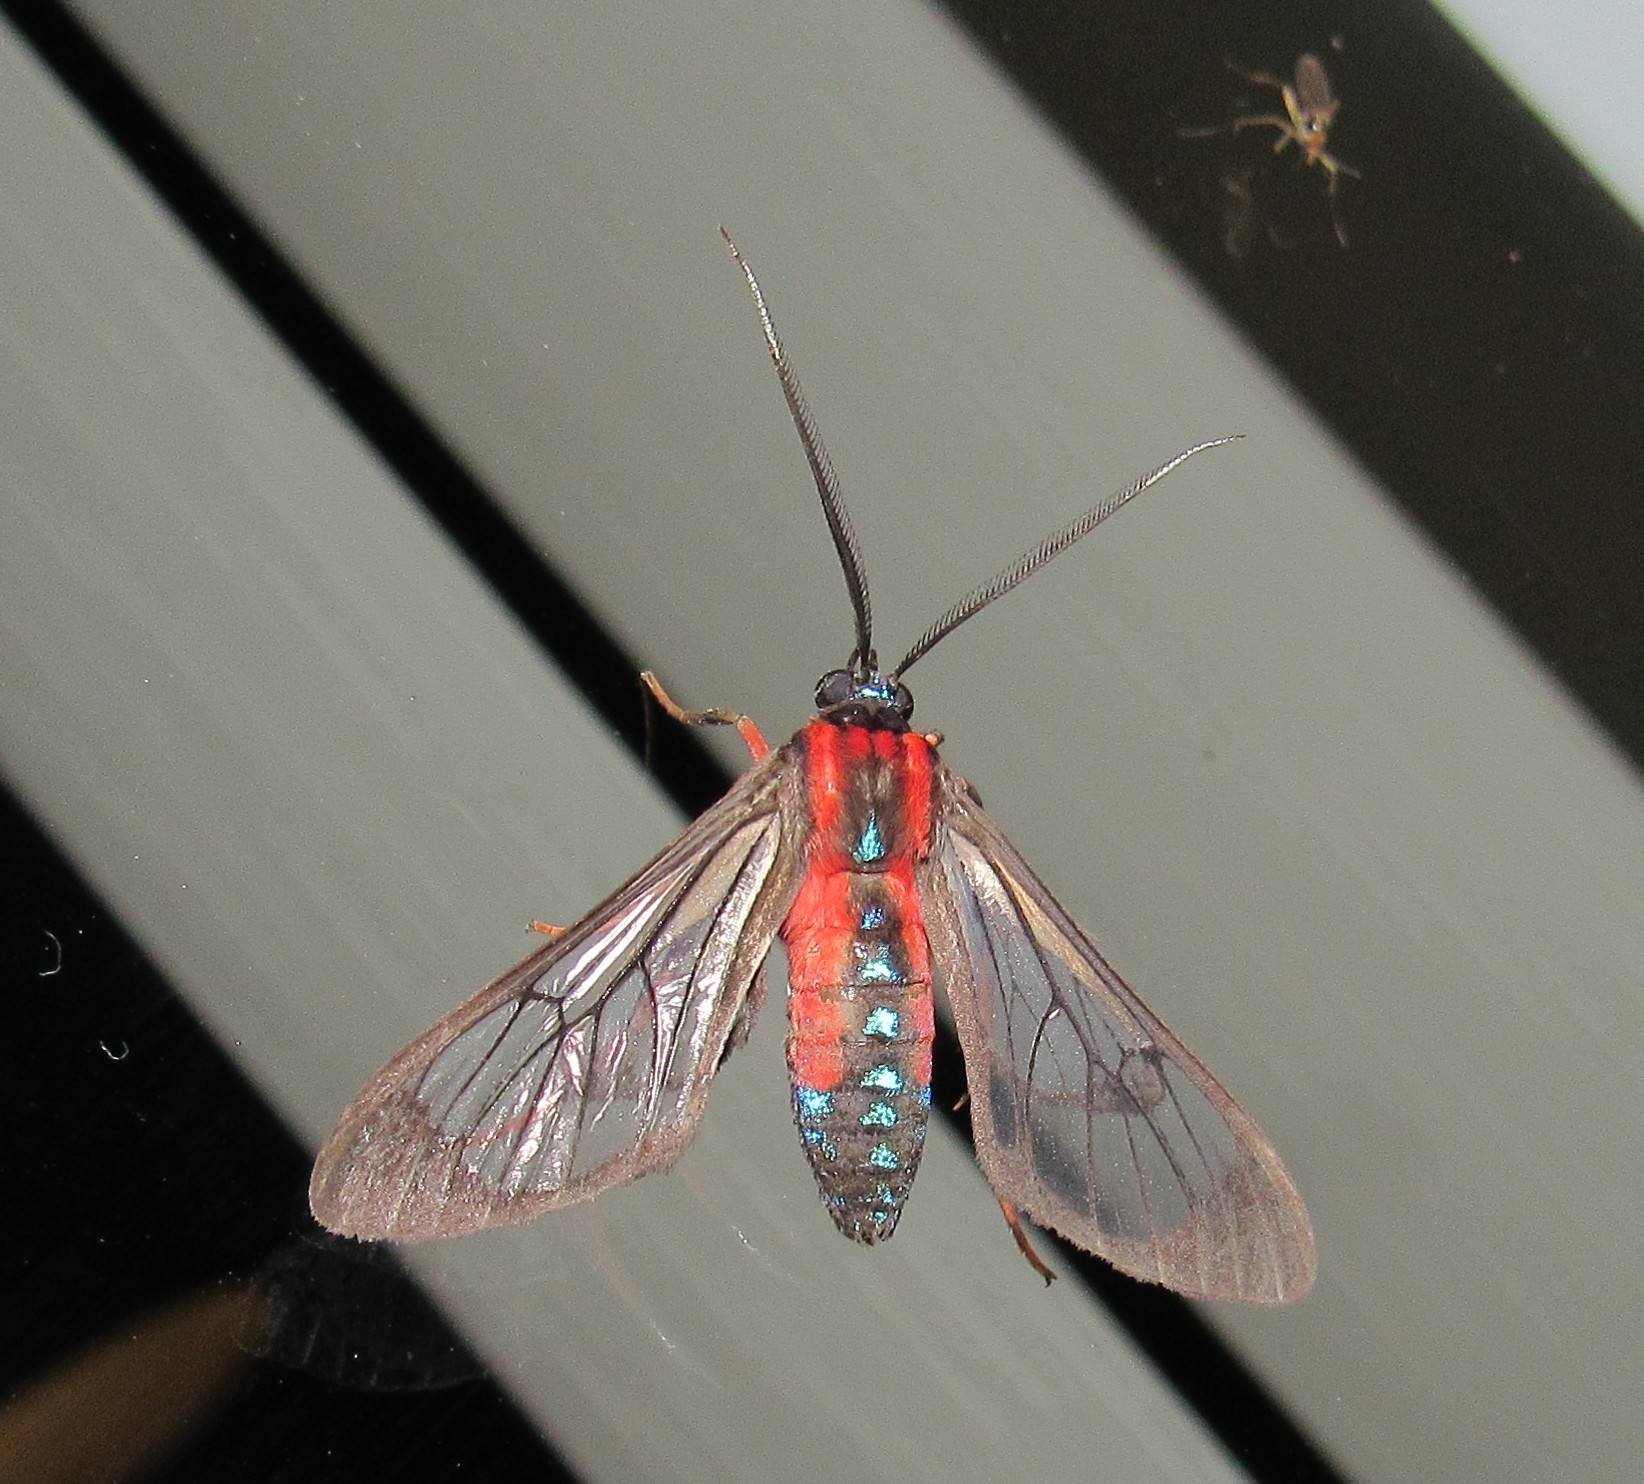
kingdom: Animalia
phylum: Arthropoda
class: Insecta
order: Lepidoptera
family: Erebidae
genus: Cosmosoma
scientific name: Cosmosoma auge
